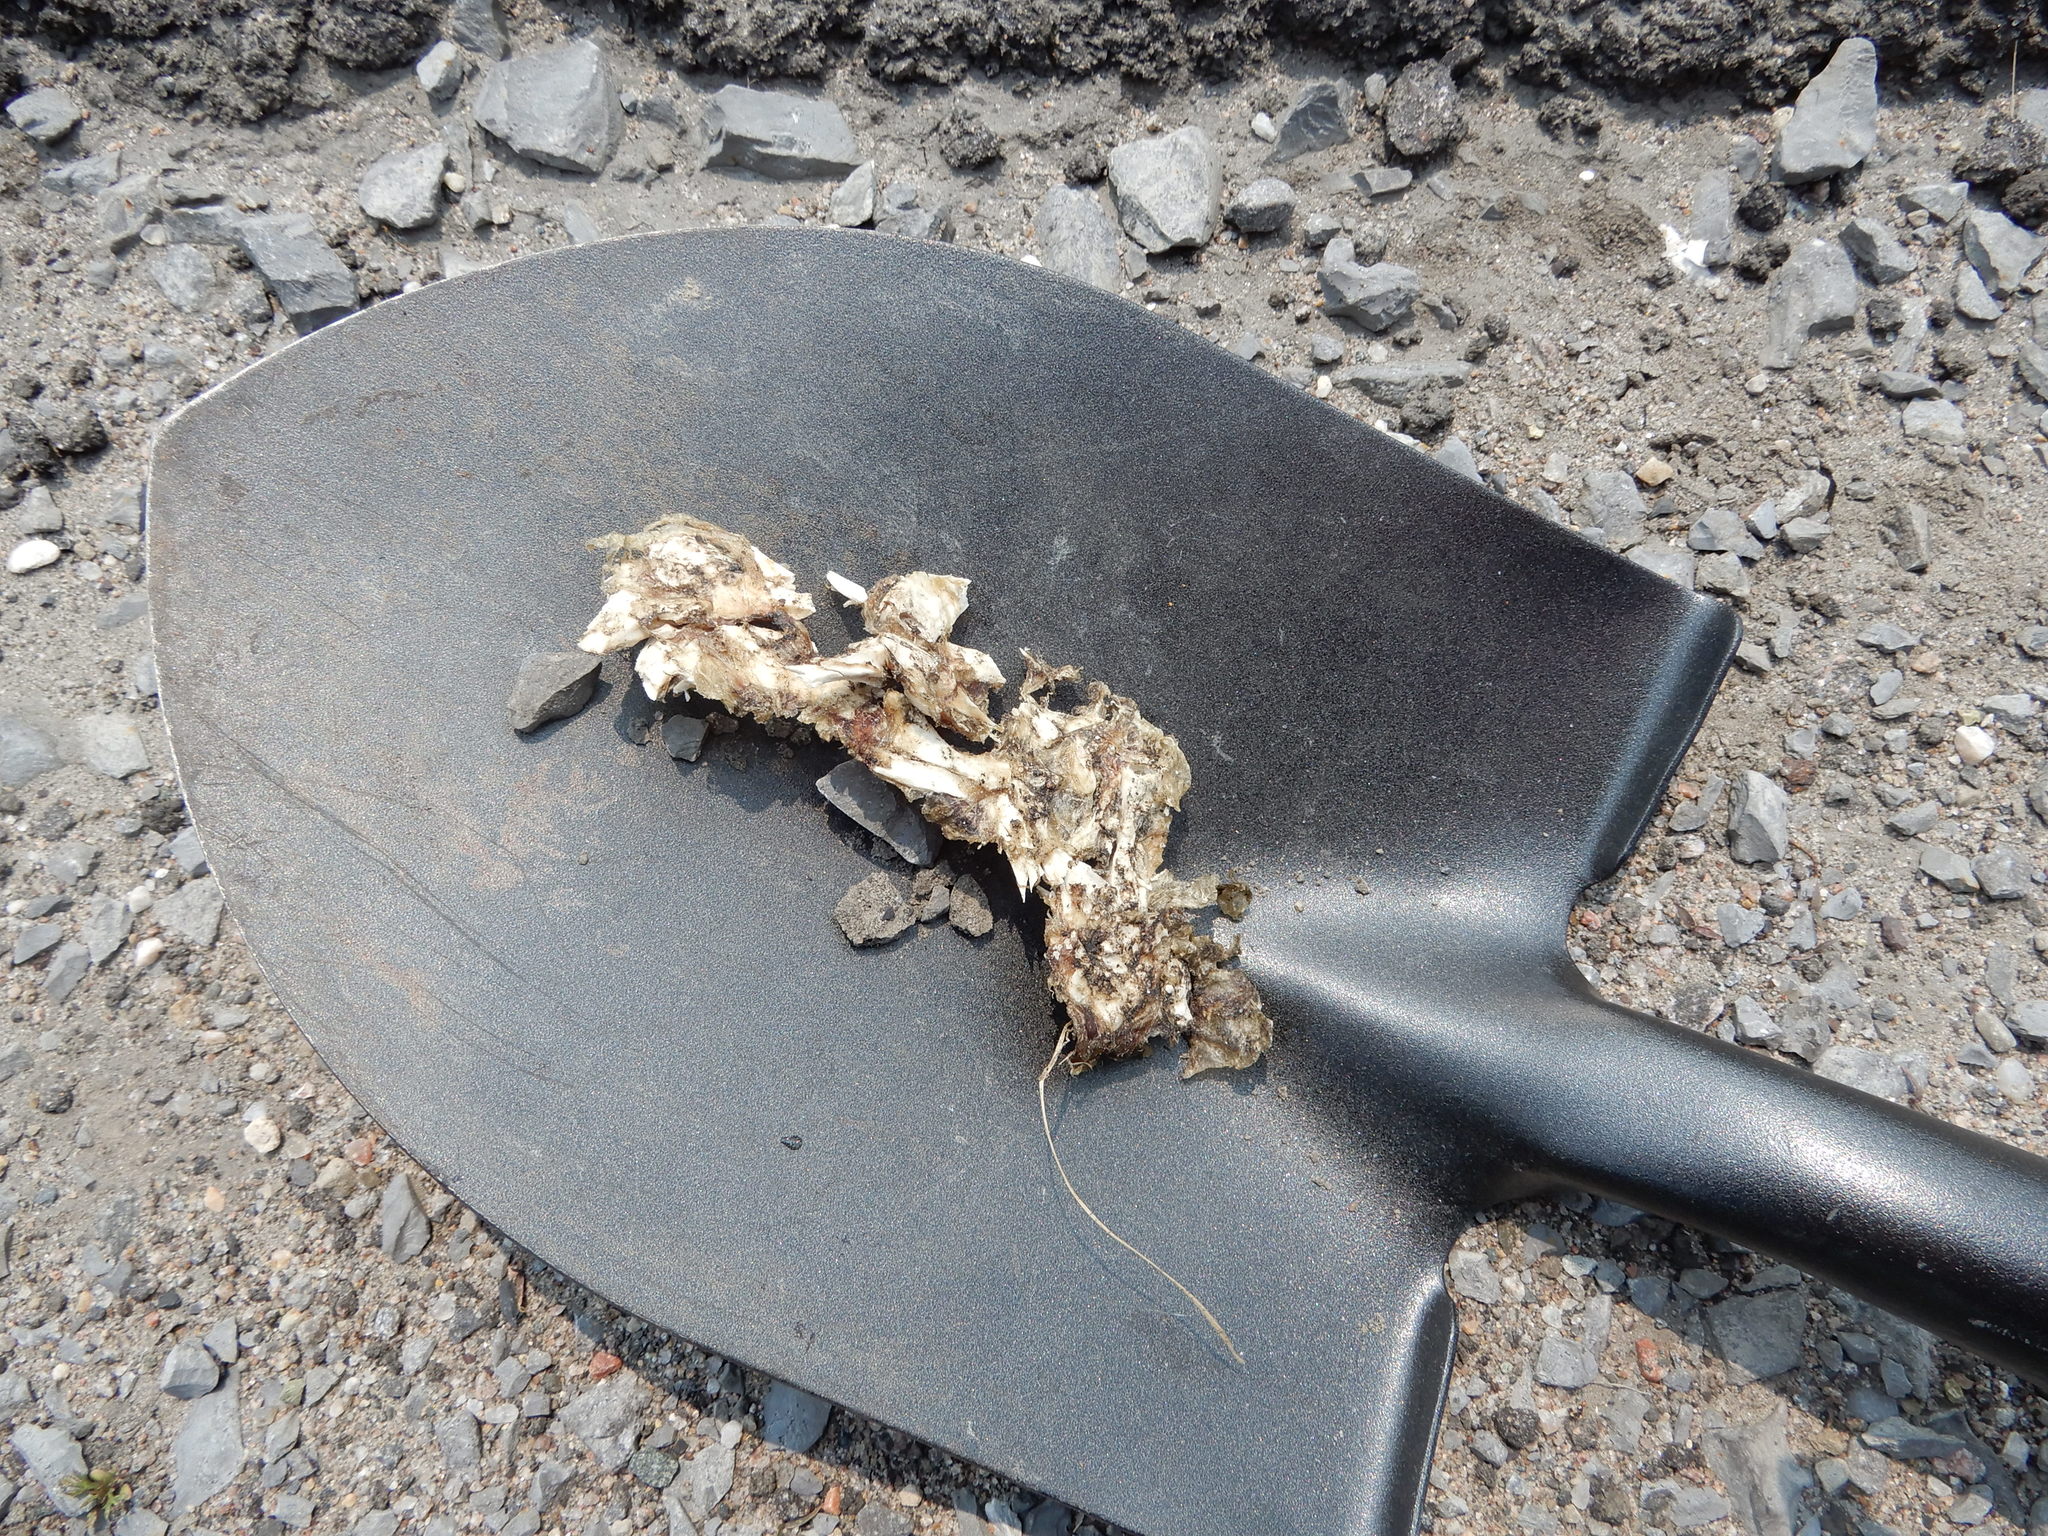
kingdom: Animalia
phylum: Chordata
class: Testudines
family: Chelydridae
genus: Chelydra
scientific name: Chelydra serpentina
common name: Common snapping turtle
